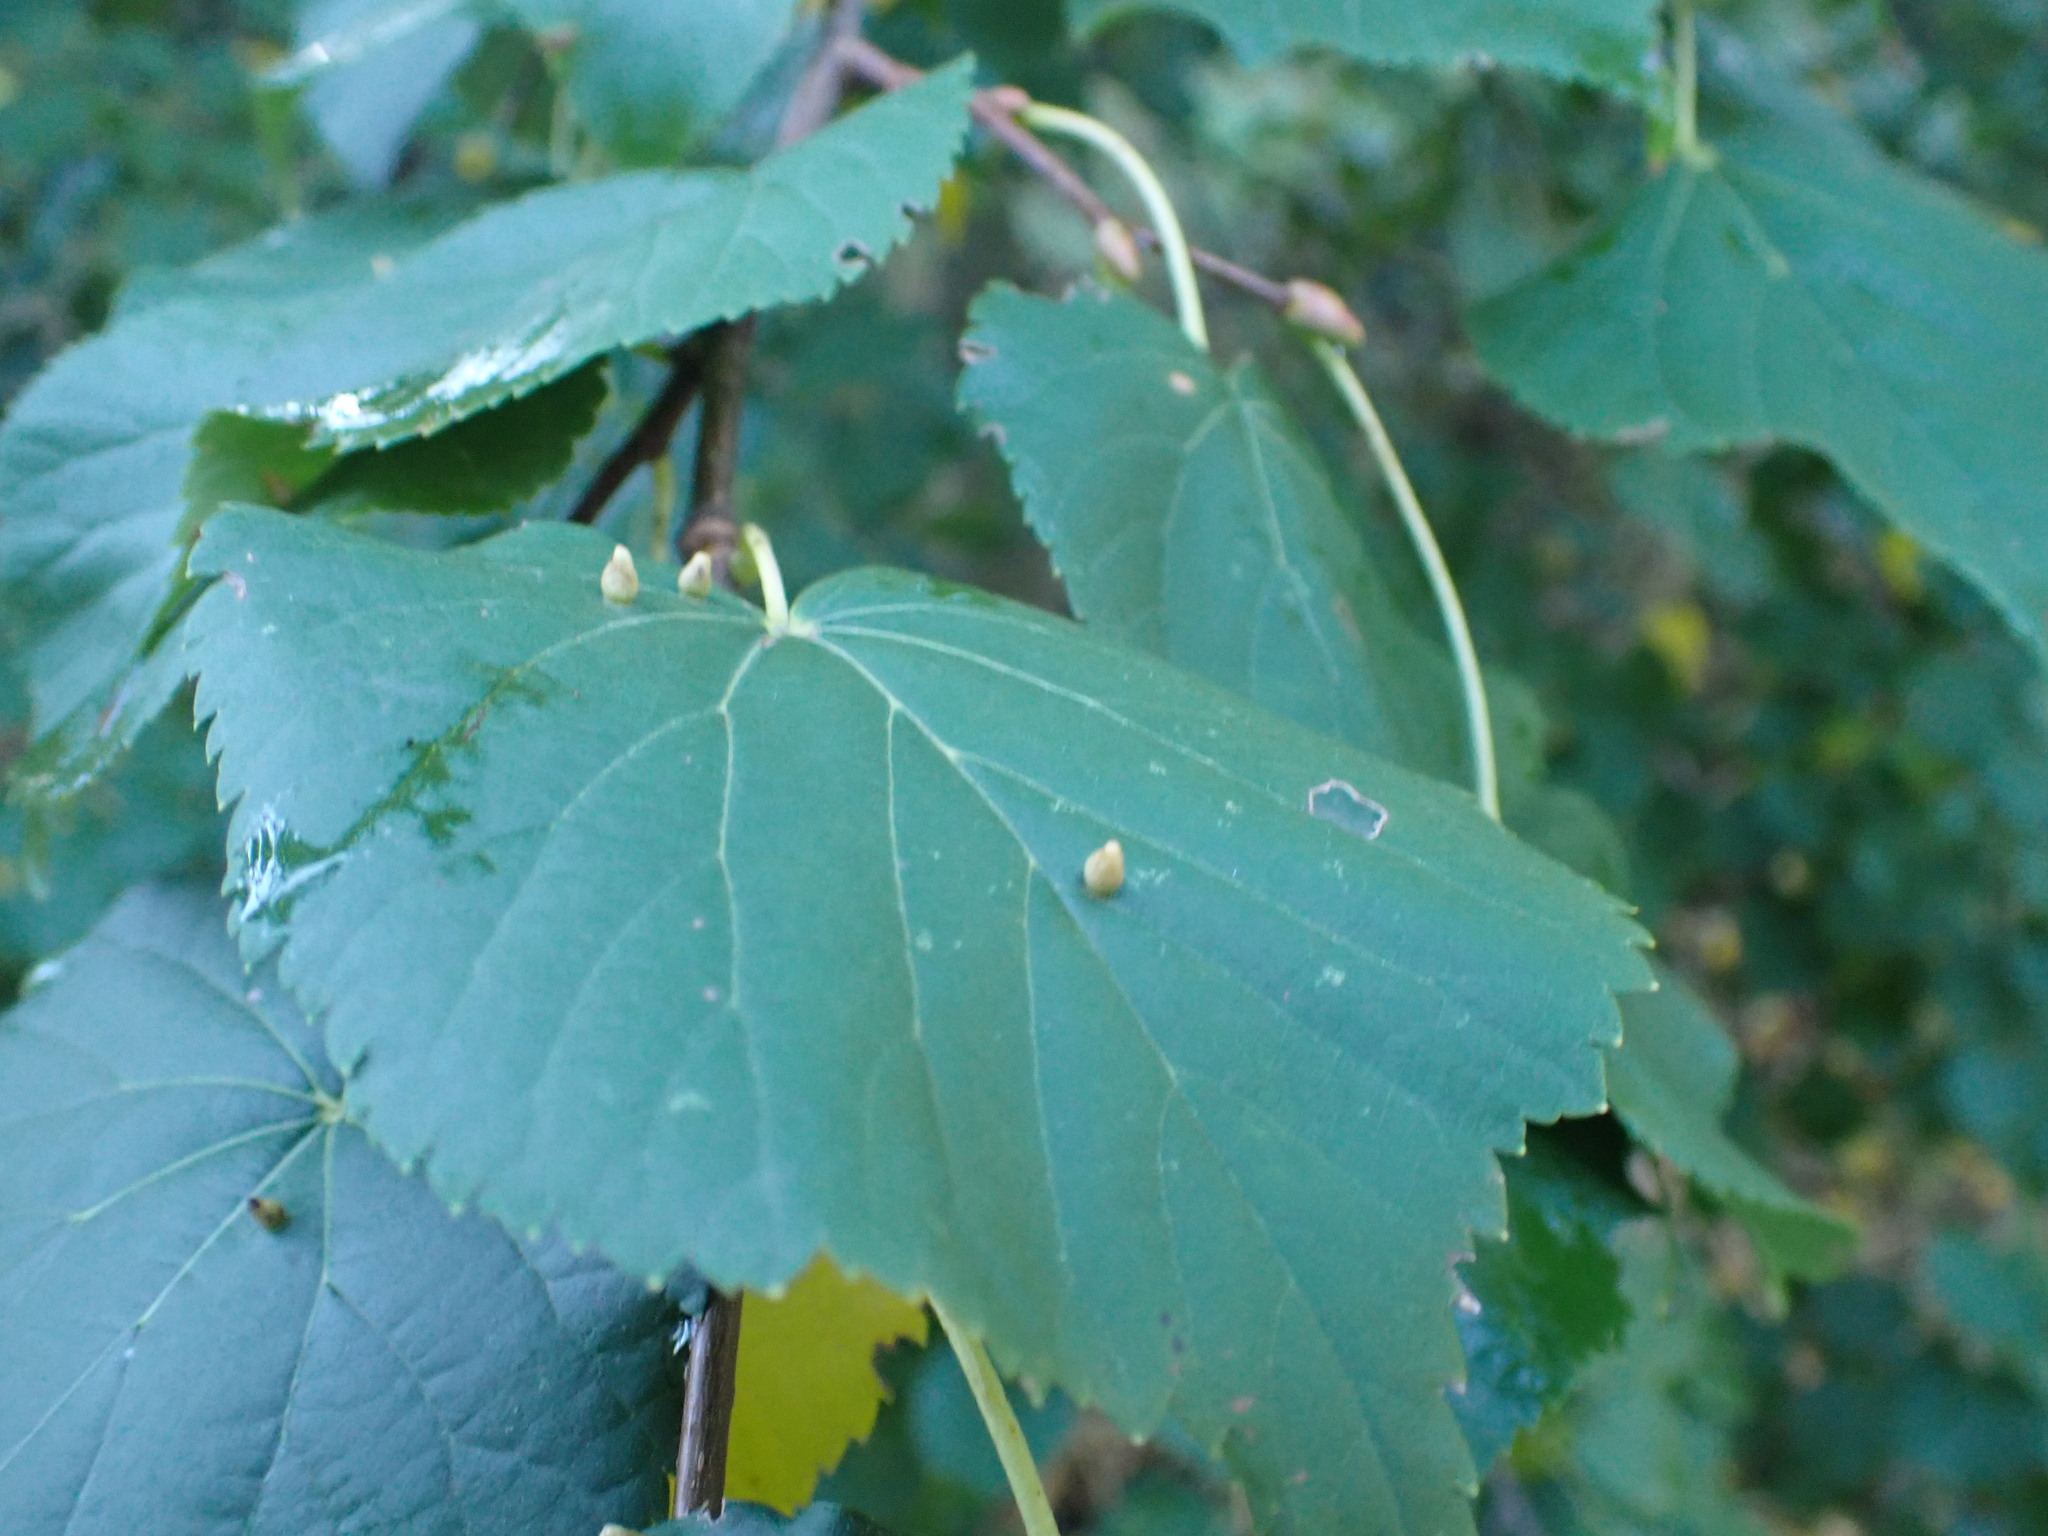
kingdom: Animalia
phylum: Arthropoda
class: Arachnida
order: Trombidiformes
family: Eriophyidae
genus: Eriophyes
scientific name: Eriophyes tiliae
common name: Red nail gall mite
